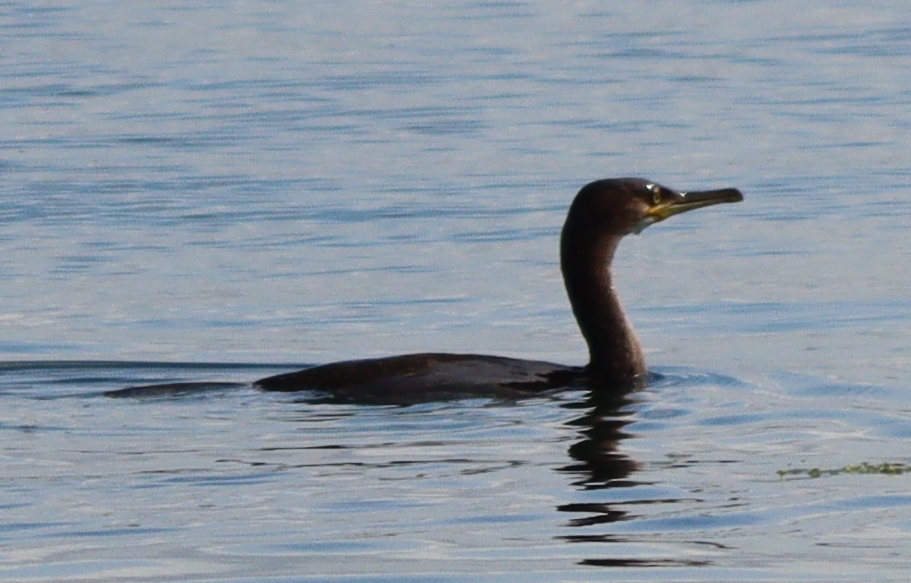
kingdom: Animalia
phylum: Chordata
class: Aves
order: Suliformes
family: Phalacrocoracidae
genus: Phalacrocorax
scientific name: Phalacrocorax aristotelis
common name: European shag
